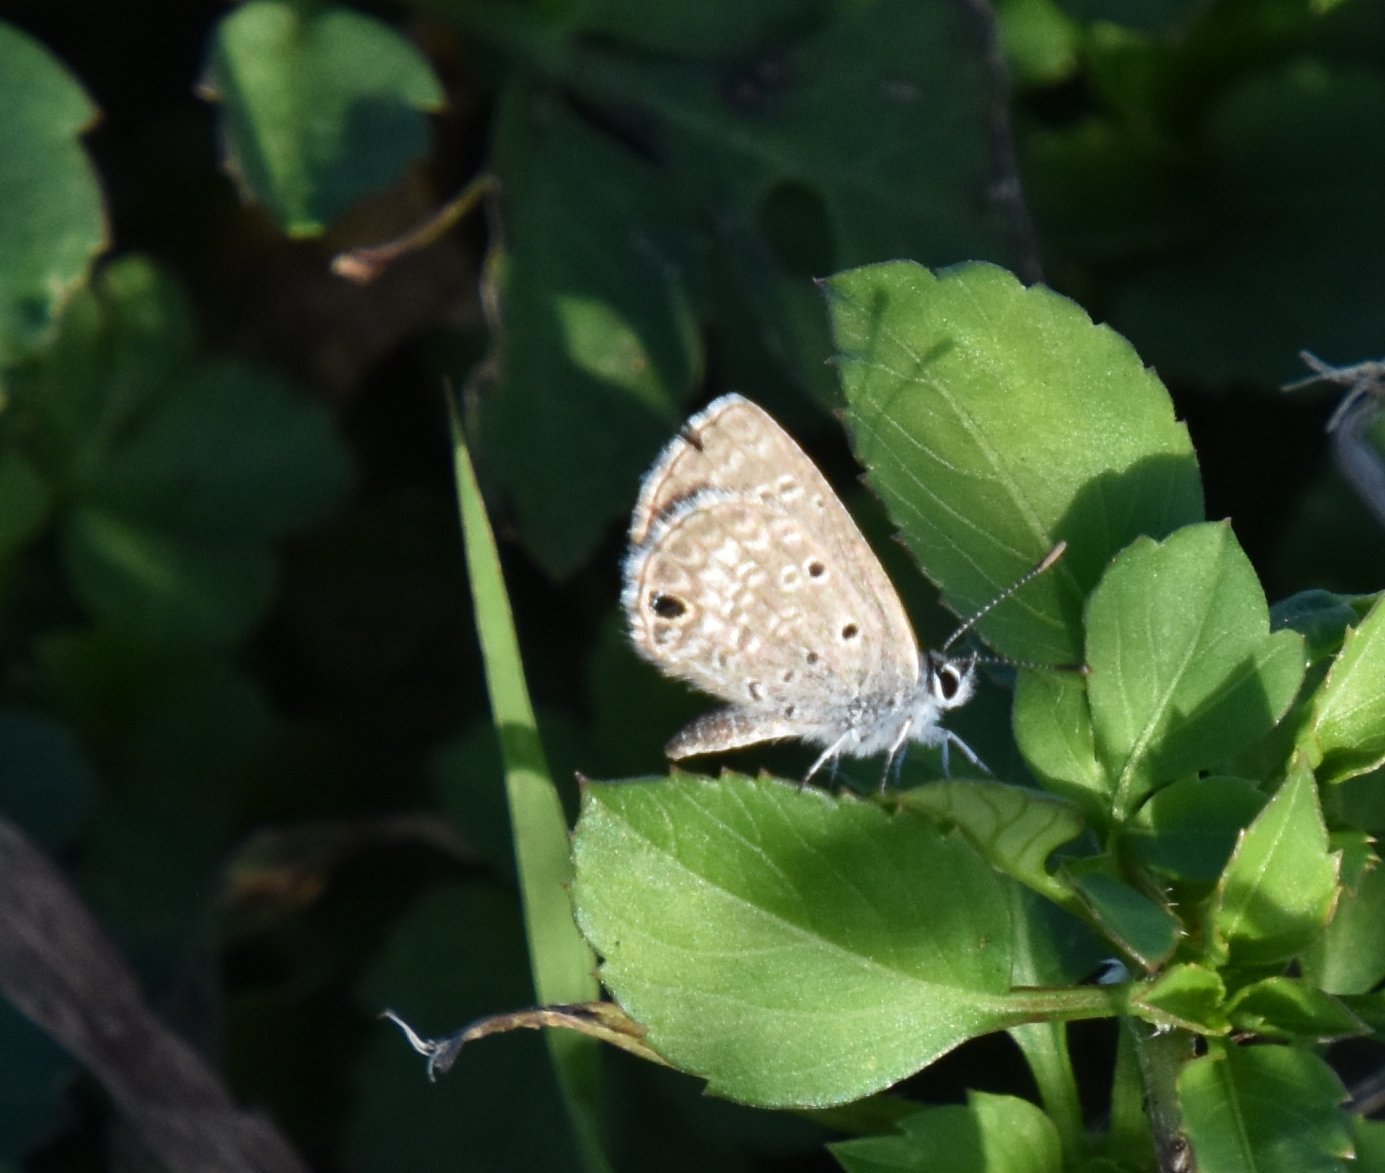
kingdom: Animalia
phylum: Arthropoda
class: Insecta
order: Lepidoptera
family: Lycaenidae
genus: Hemiargus
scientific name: Hemiargus ceraunus
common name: Ceraunus blue
